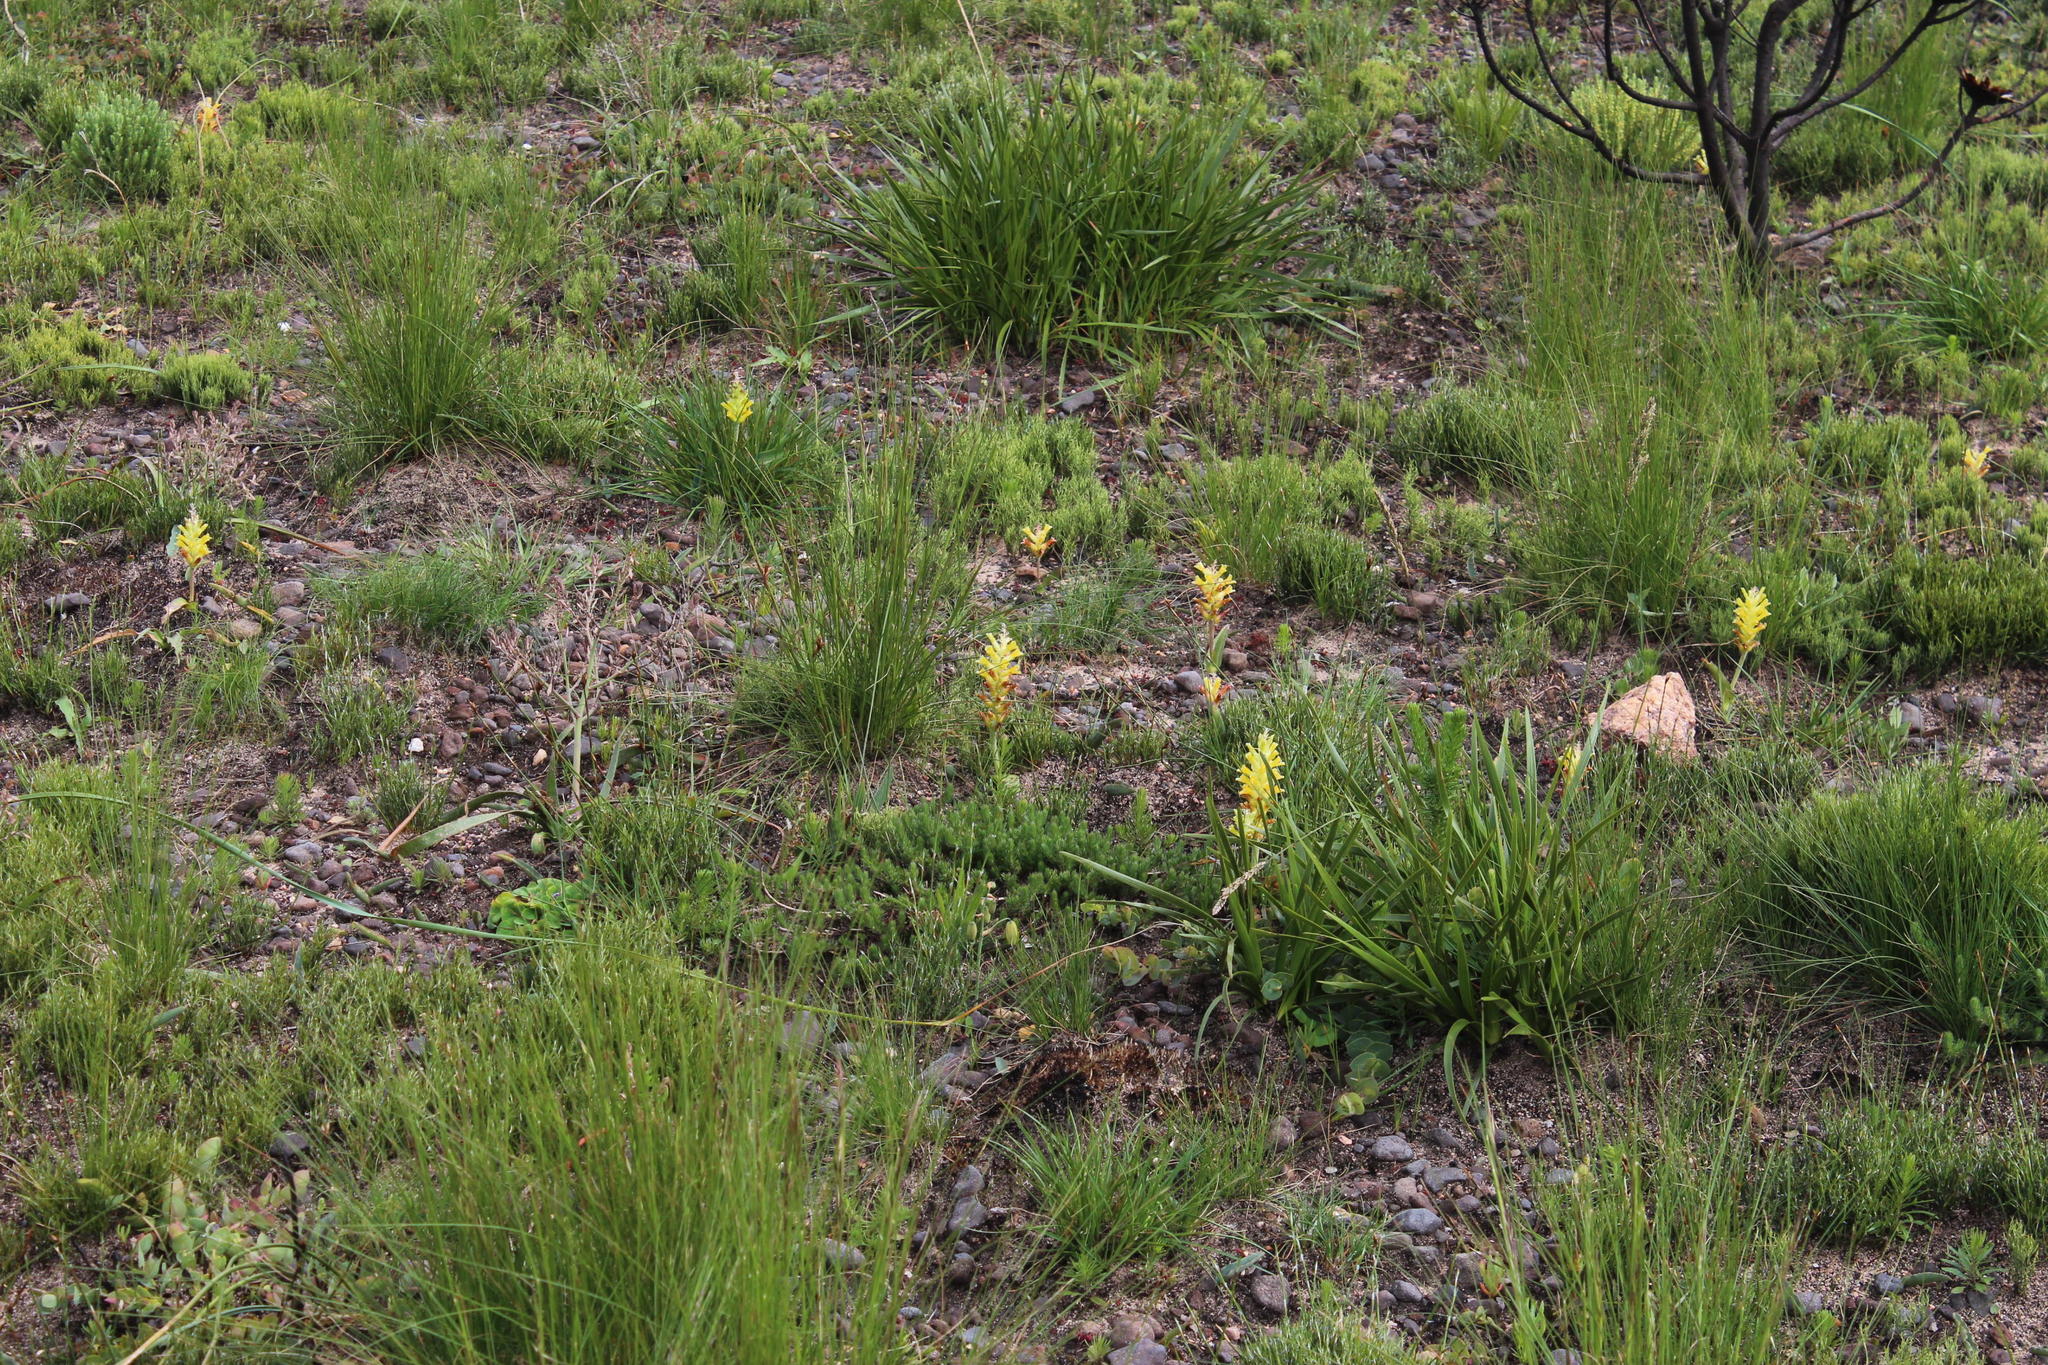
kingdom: Plantae
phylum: Tracheophyta
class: Liliopsida
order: Asparagales
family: Asparagaceae
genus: Lachenalia
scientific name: Lachenalia orchioides
